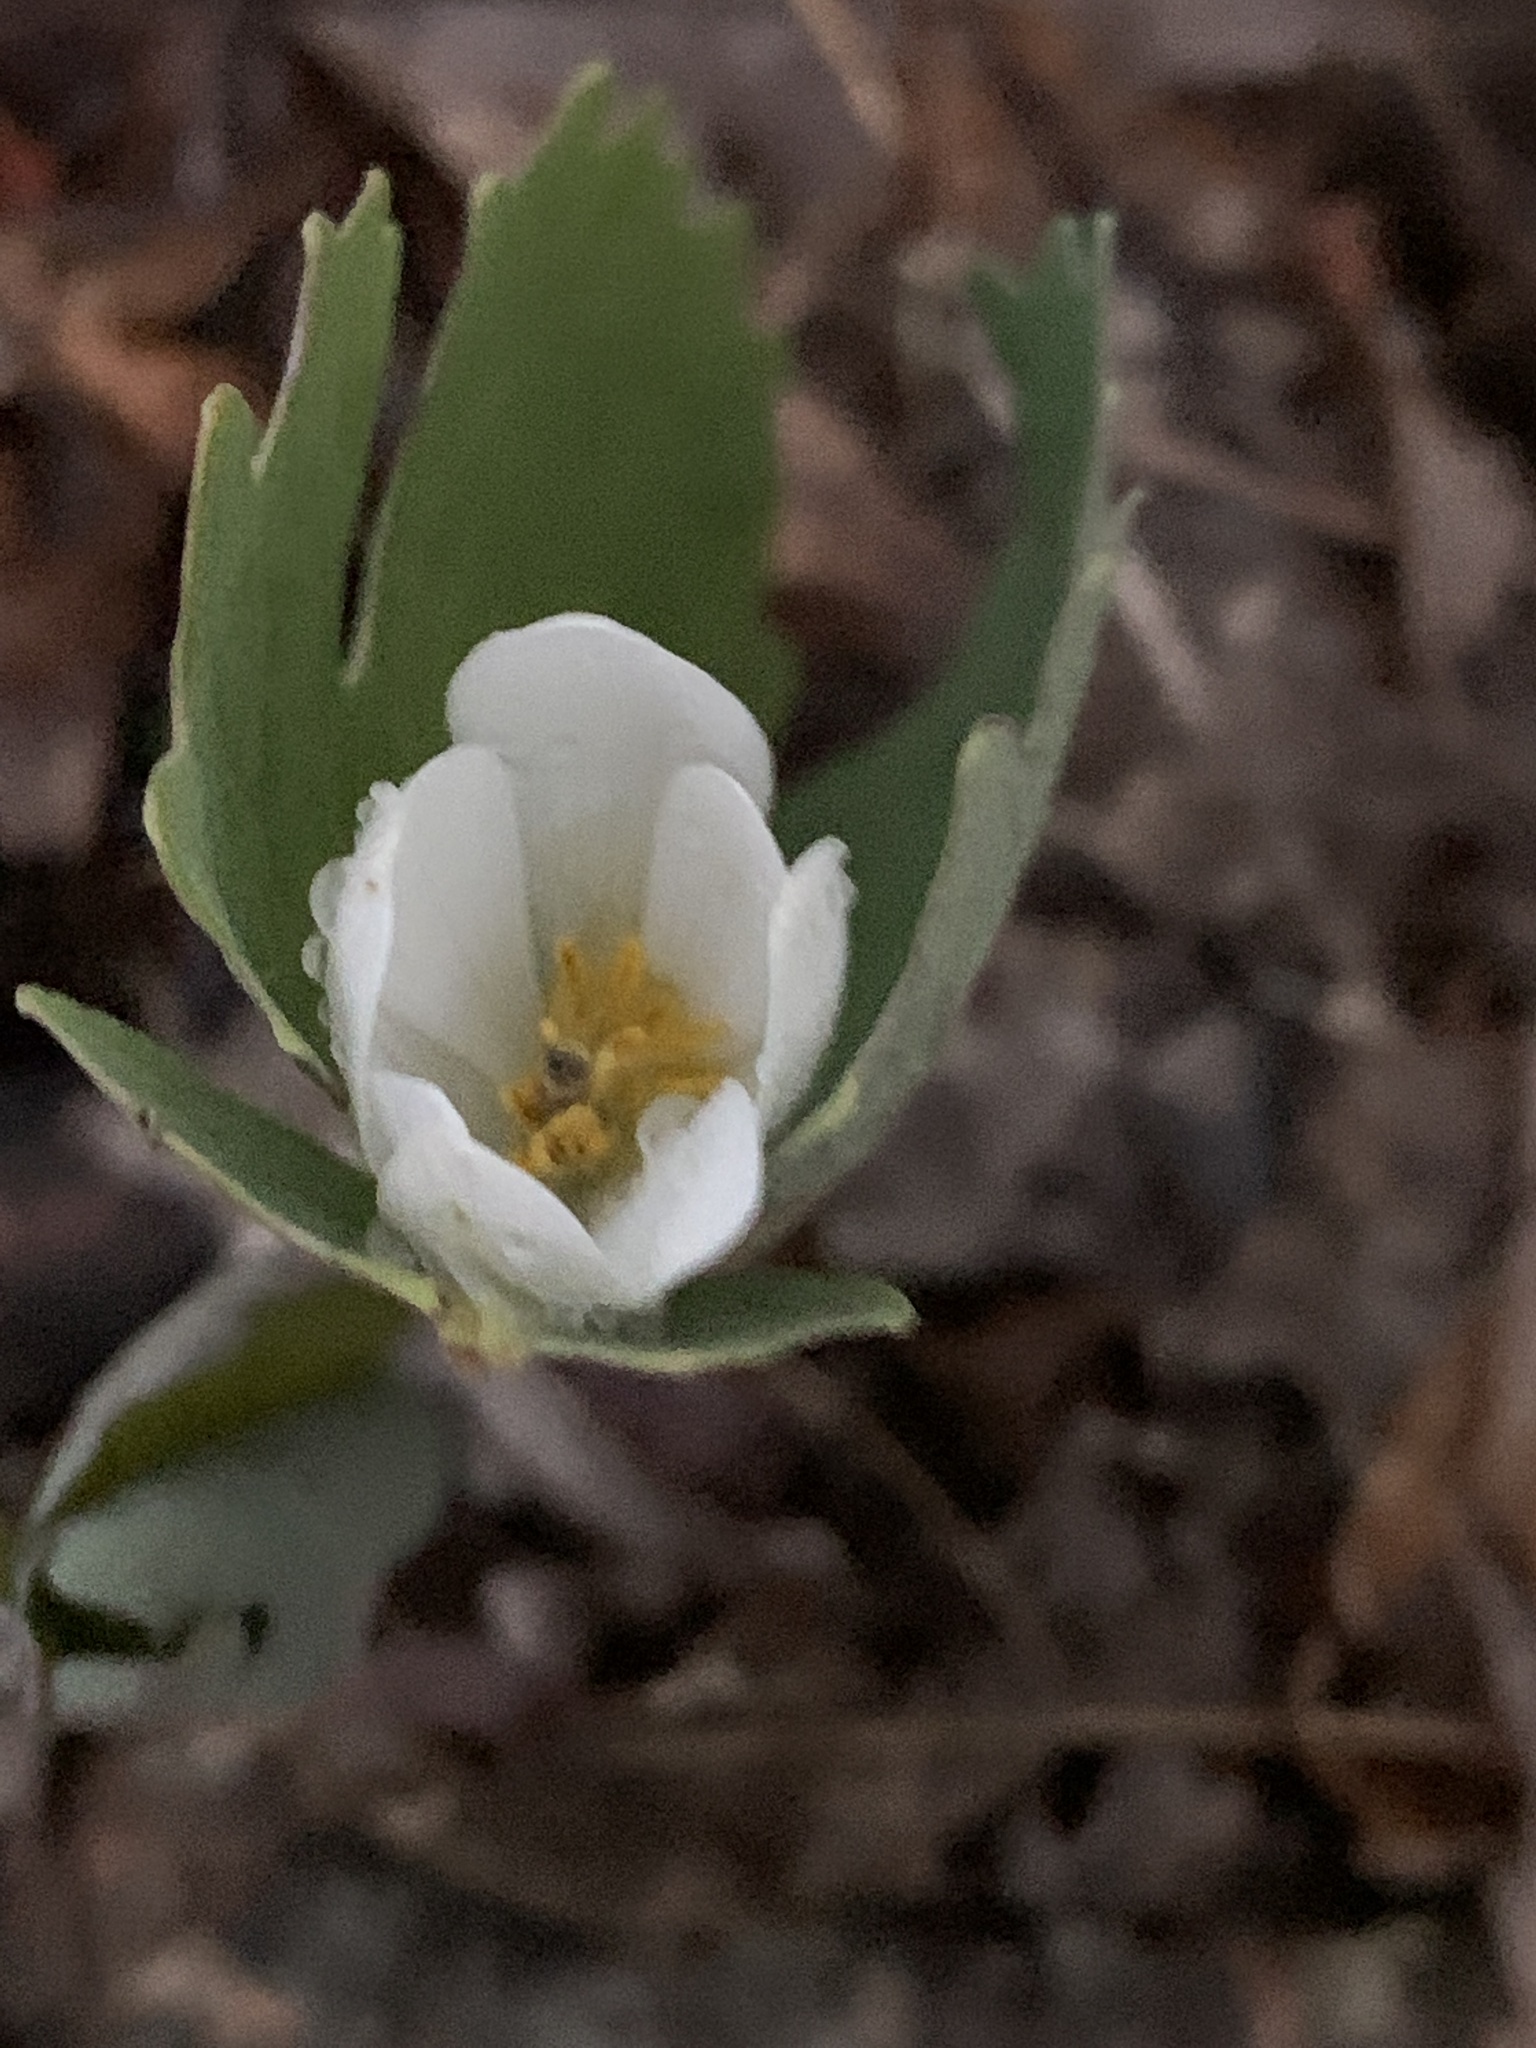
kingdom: Plantae
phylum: Tracheophyta
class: Magnoliopsida
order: Ranunculales
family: Papaveraceae
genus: Sanguinaria
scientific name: Sanguinaria canadensis
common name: Bloodroot
